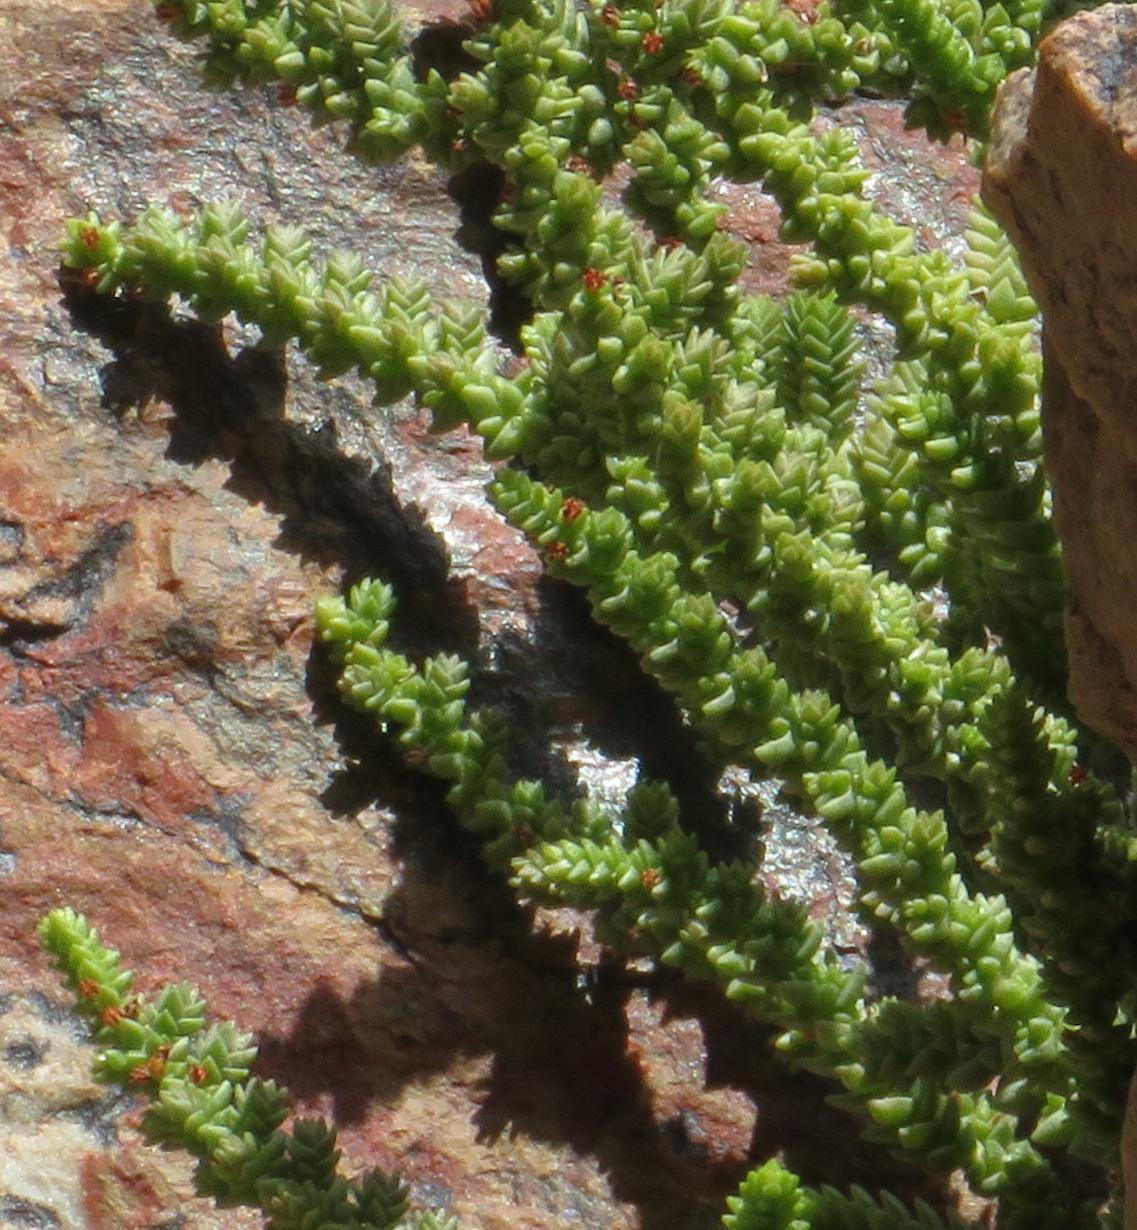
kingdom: Plantae
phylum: Tracheophyta
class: Magnoliopsida
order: Saxifragales
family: Crassulaceae
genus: Crassula
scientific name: Crassula muscosa
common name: Toy-cypress
